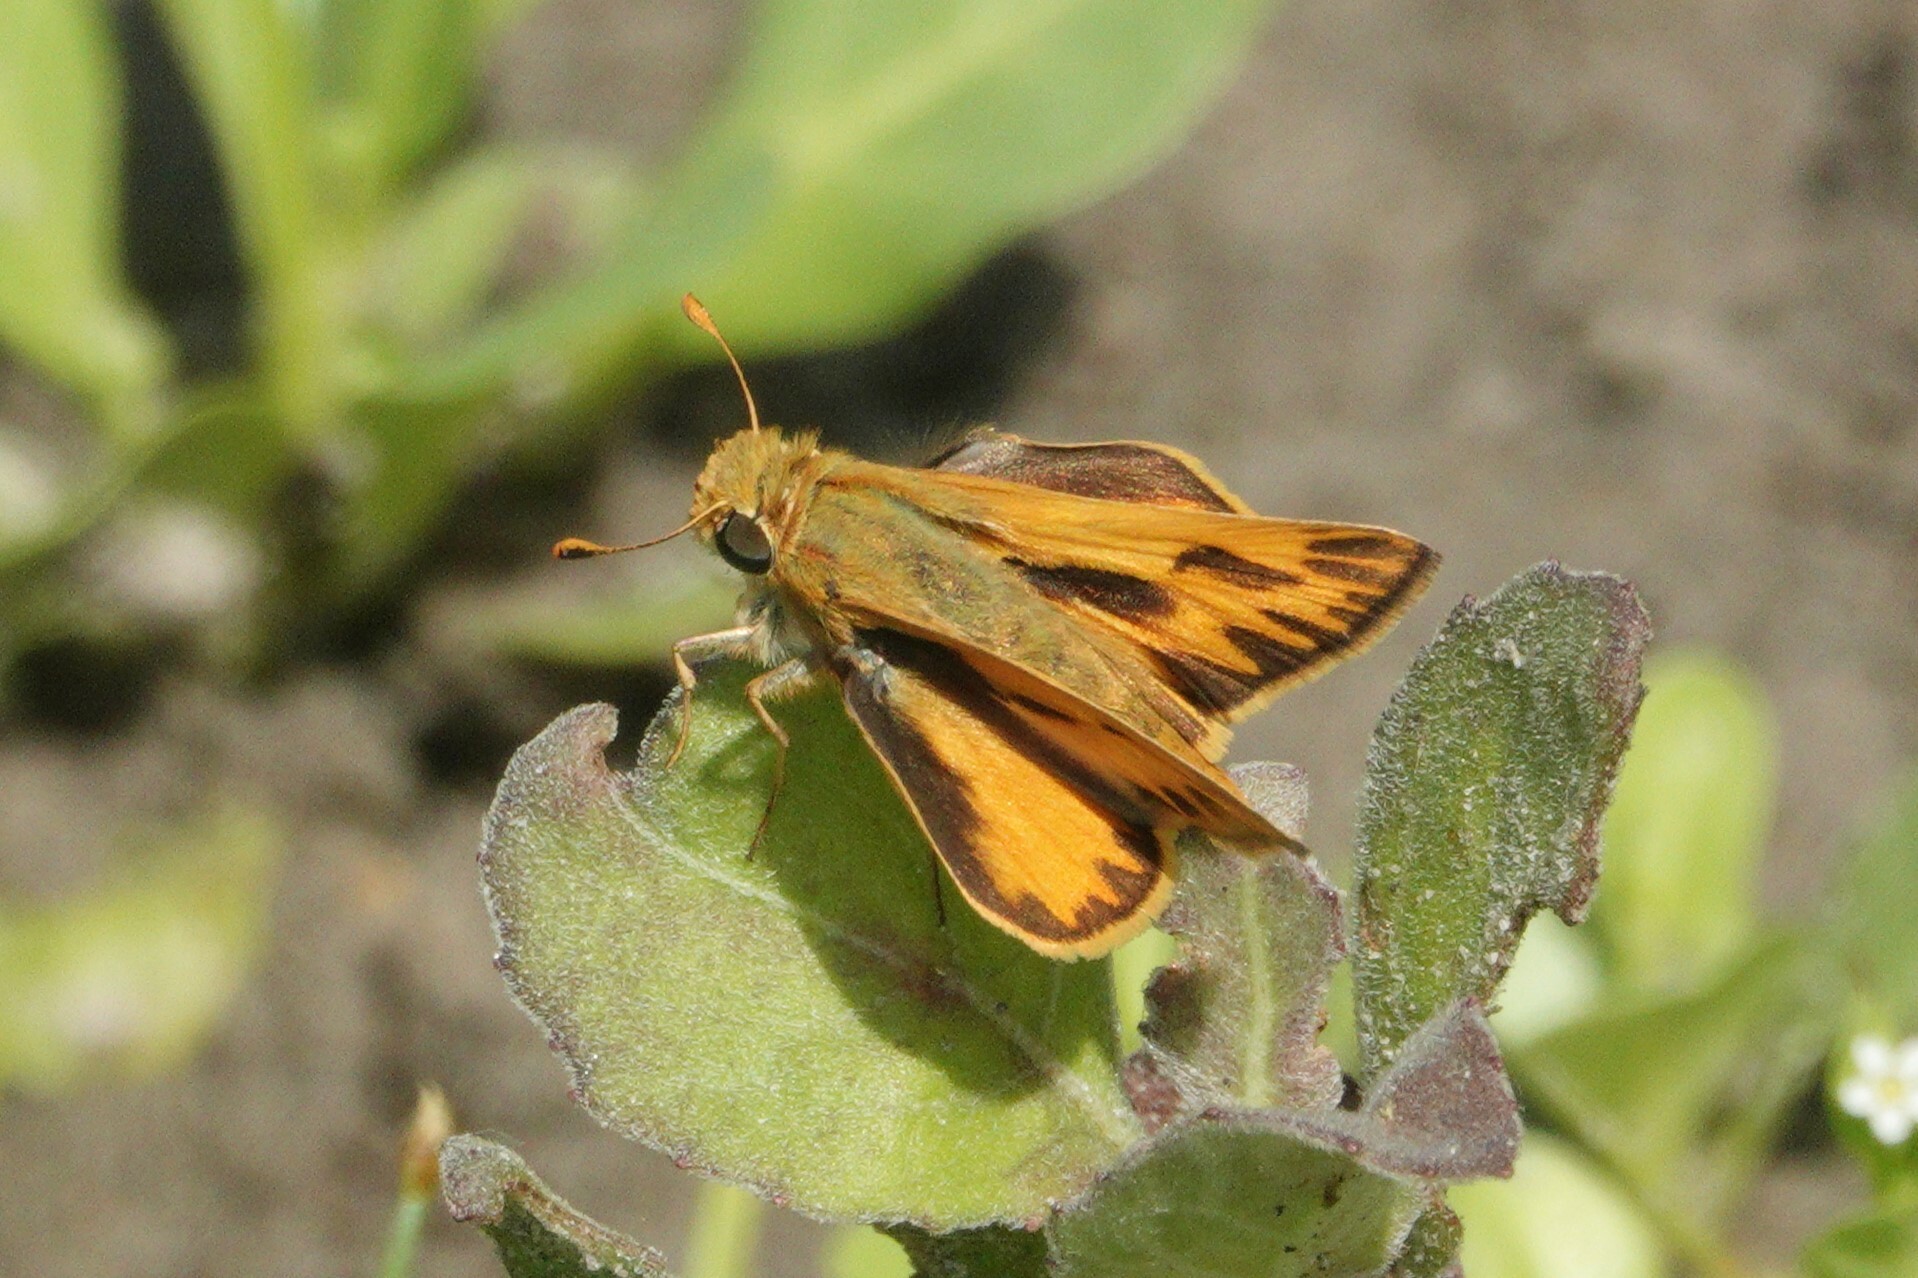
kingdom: Animalia
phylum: Arthropoda
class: Insecta
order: Lepidoptera
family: Hesperiidae
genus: Hylephila
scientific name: Hylephila phyleus
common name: Fiery skipper
